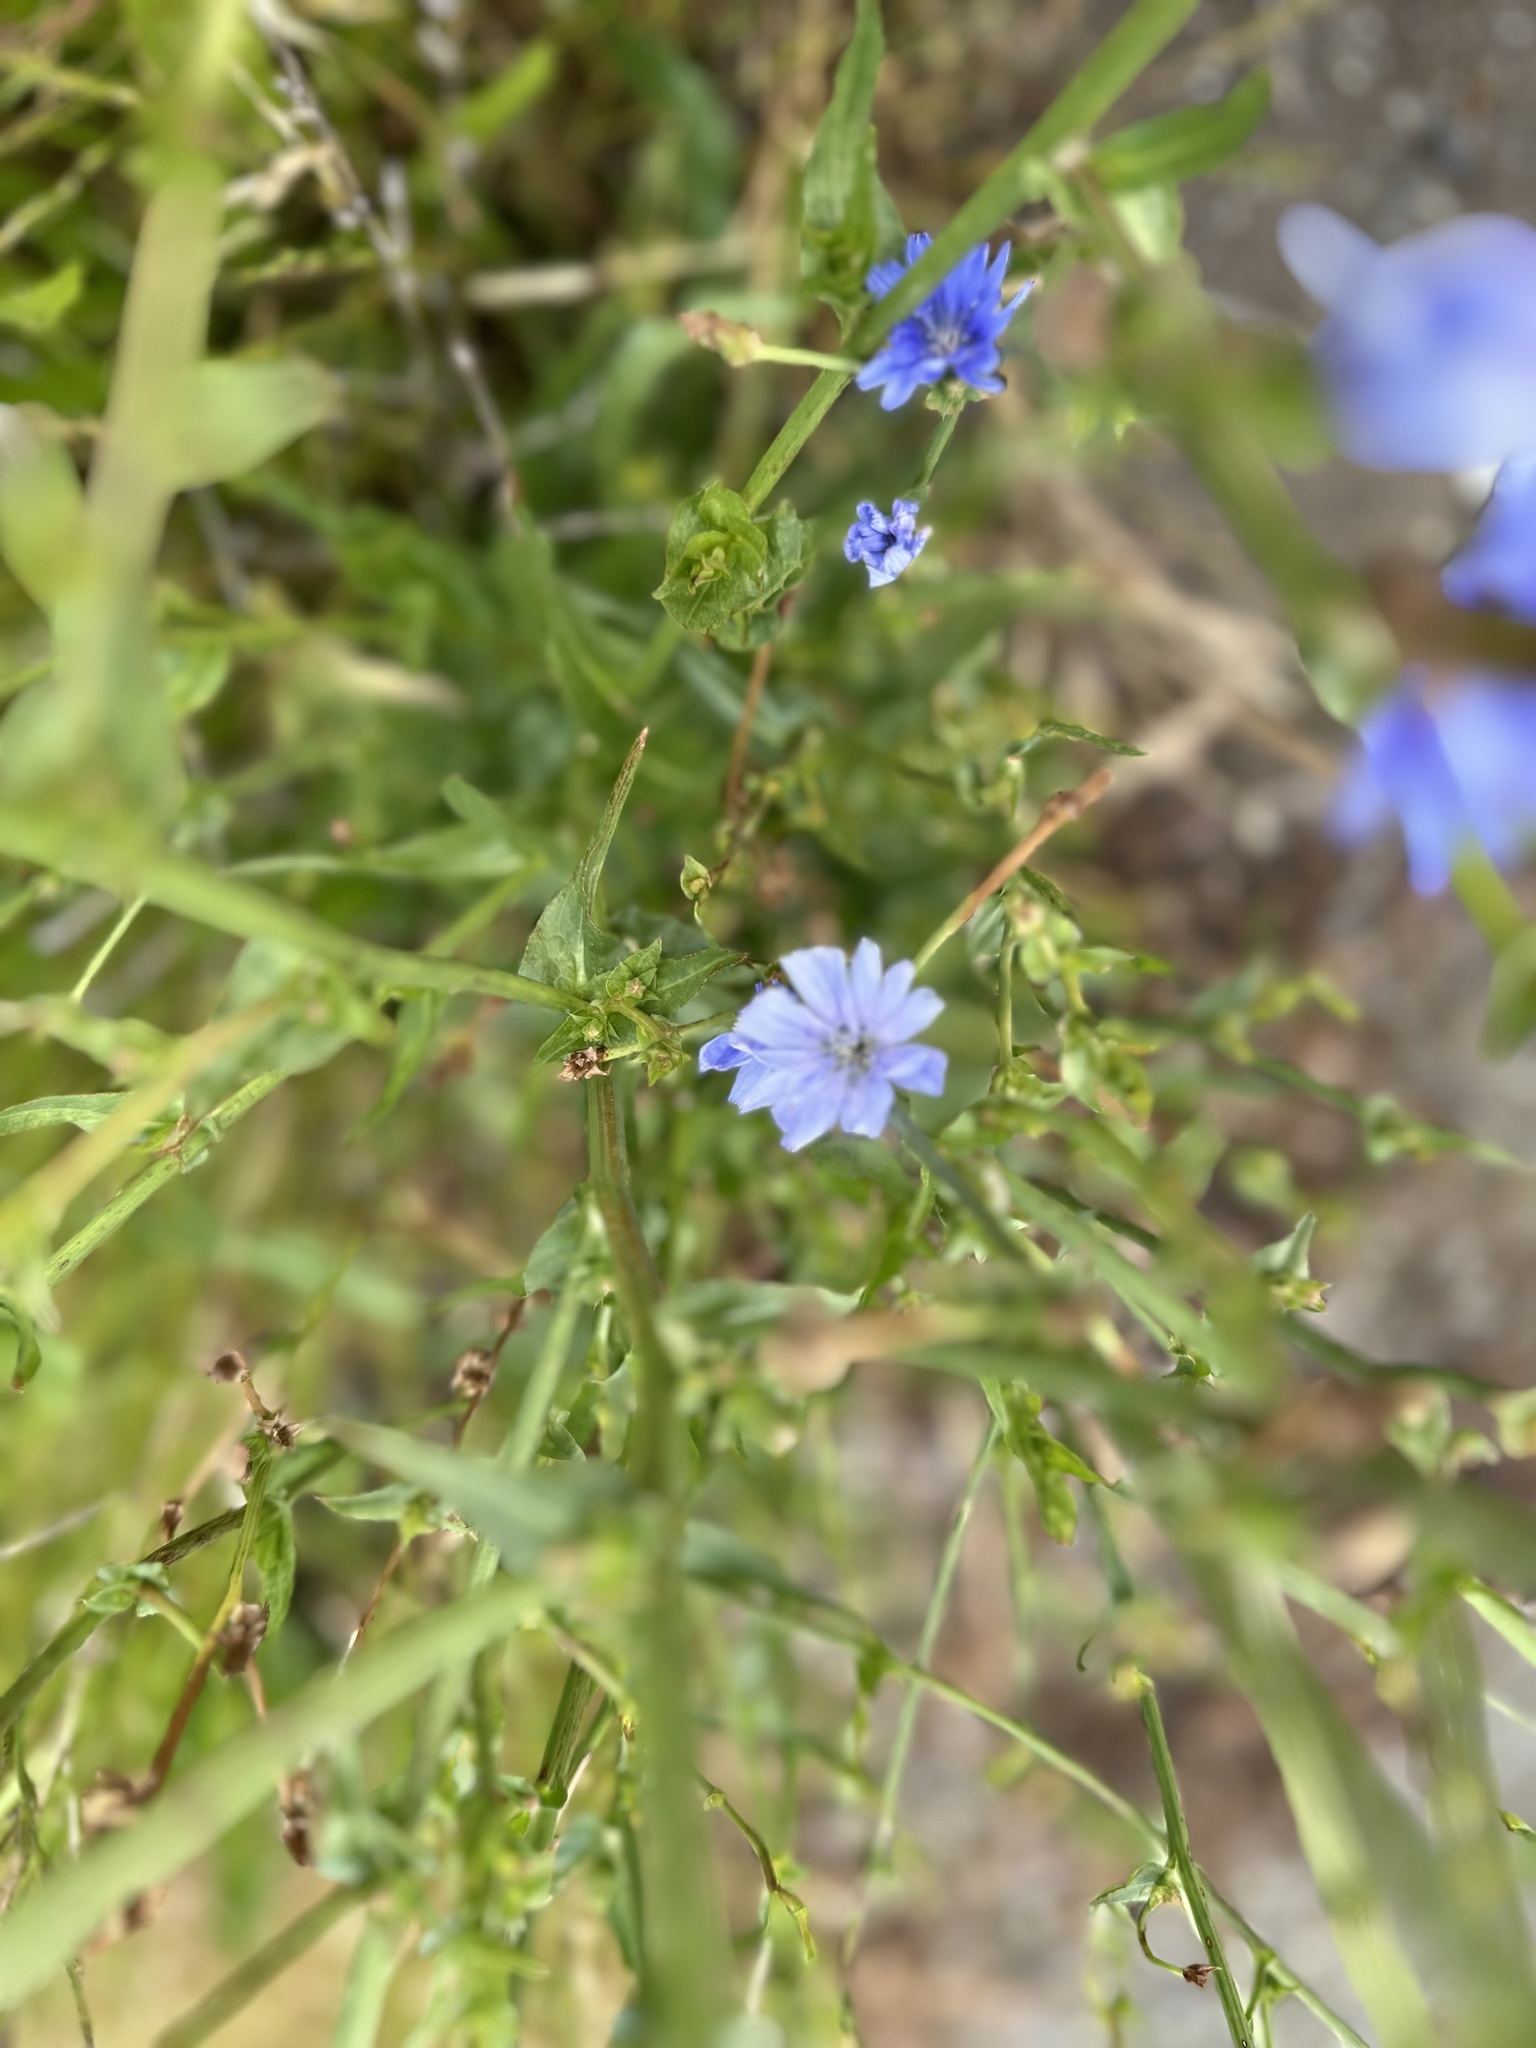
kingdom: Plantae
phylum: Tracheophyta
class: Magnoliopsida
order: Asterales
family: Asteraceae
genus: Cichorium
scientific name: Cichorium intybus
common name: Chicory
